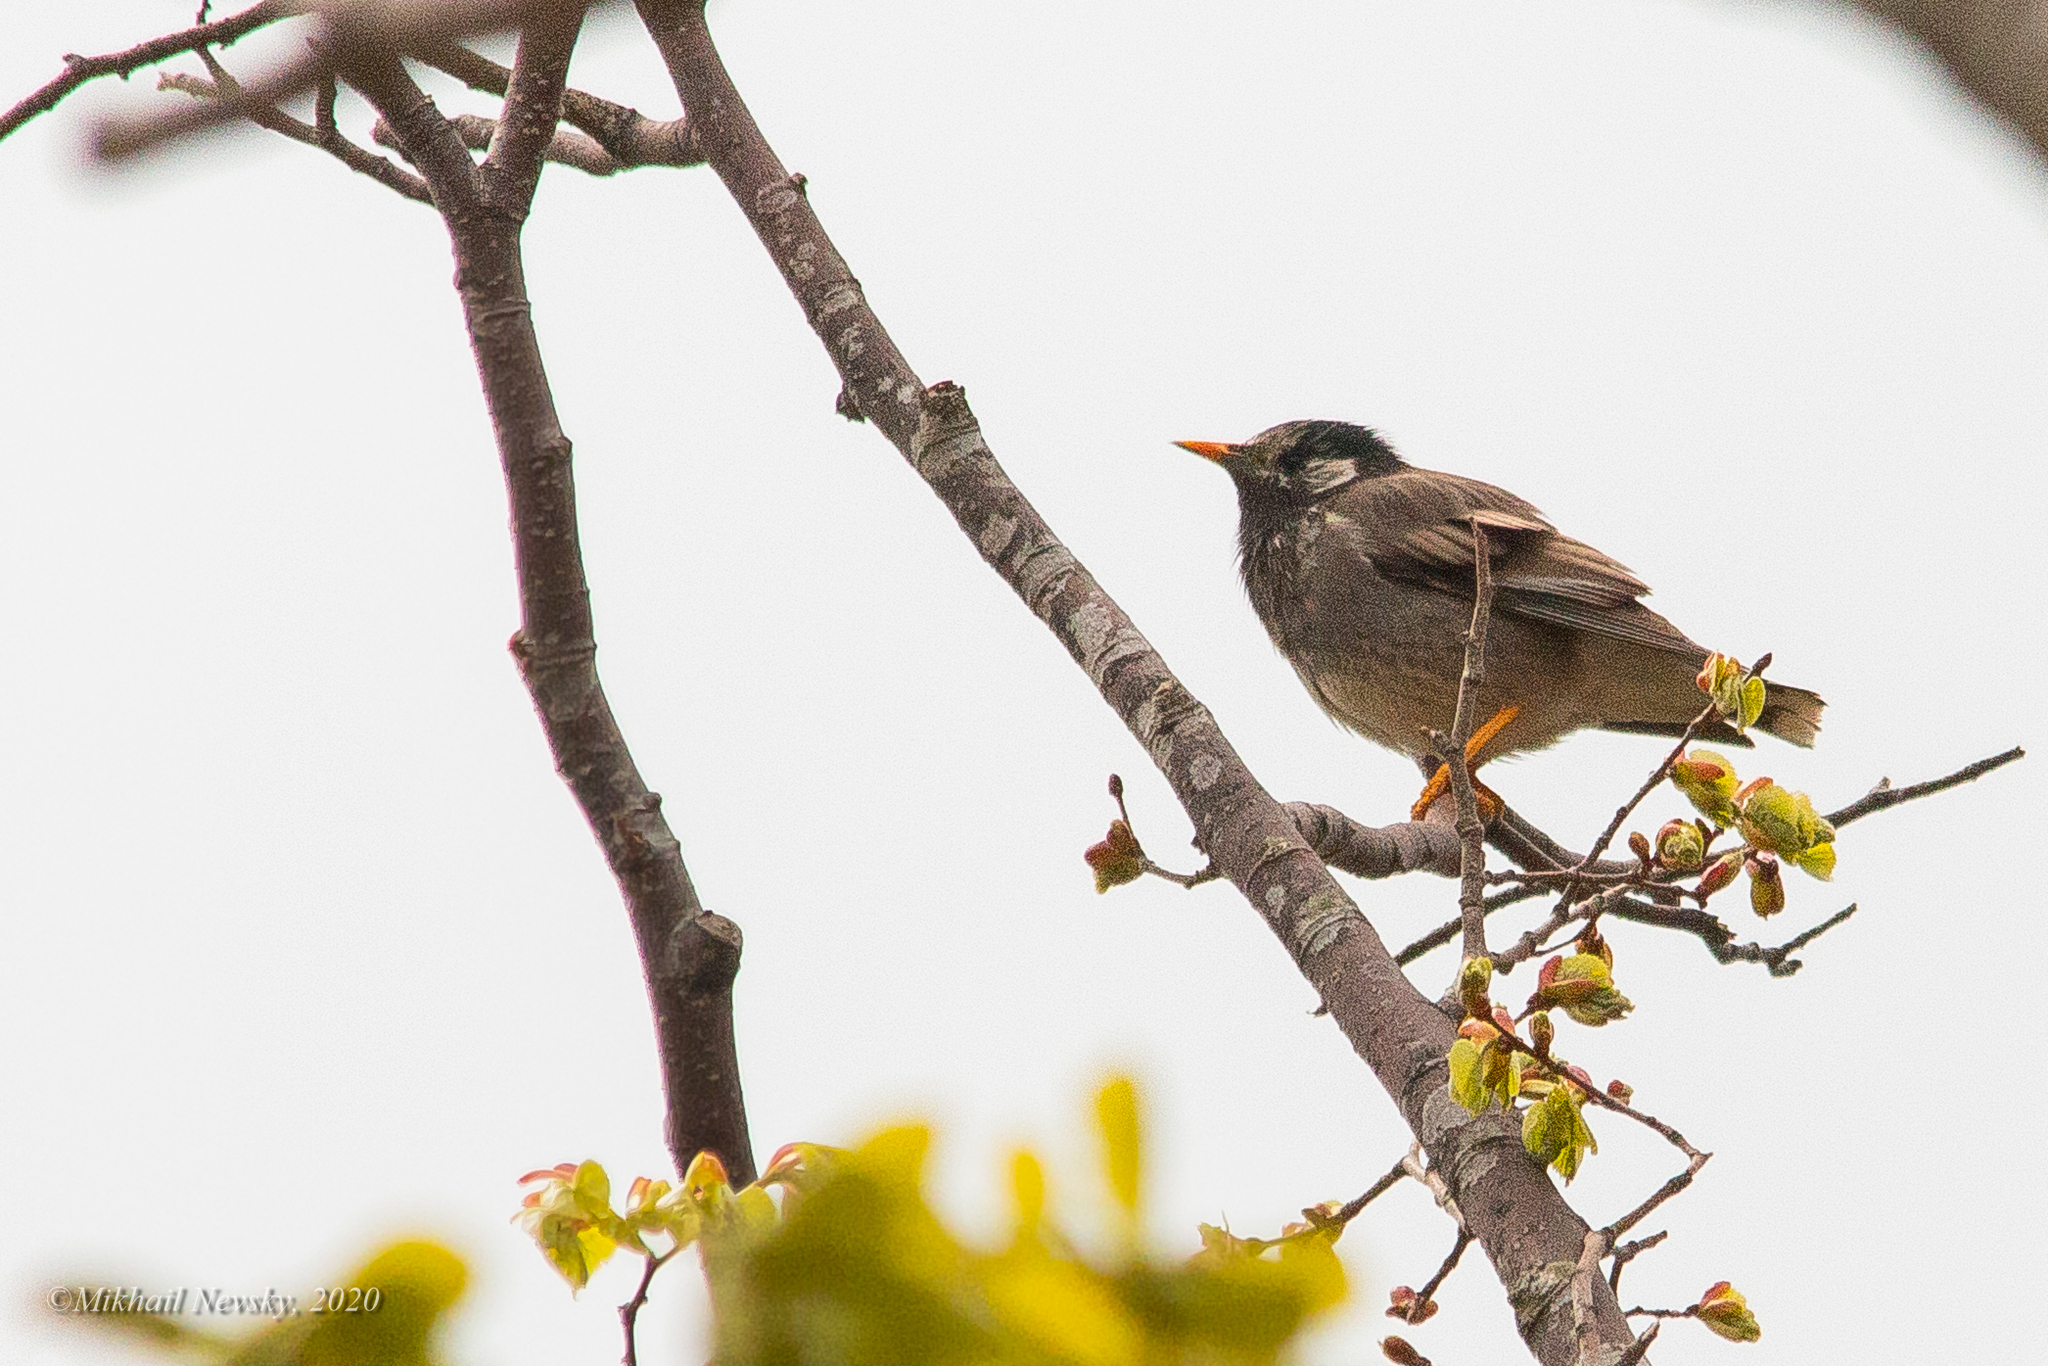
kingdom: Animalia
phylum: Chordata
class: Aves
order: Passeriformes
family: Sturnidae
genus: Spodiopsar
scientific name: Spodiopsar cineraceus
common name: White-cheeked starling
